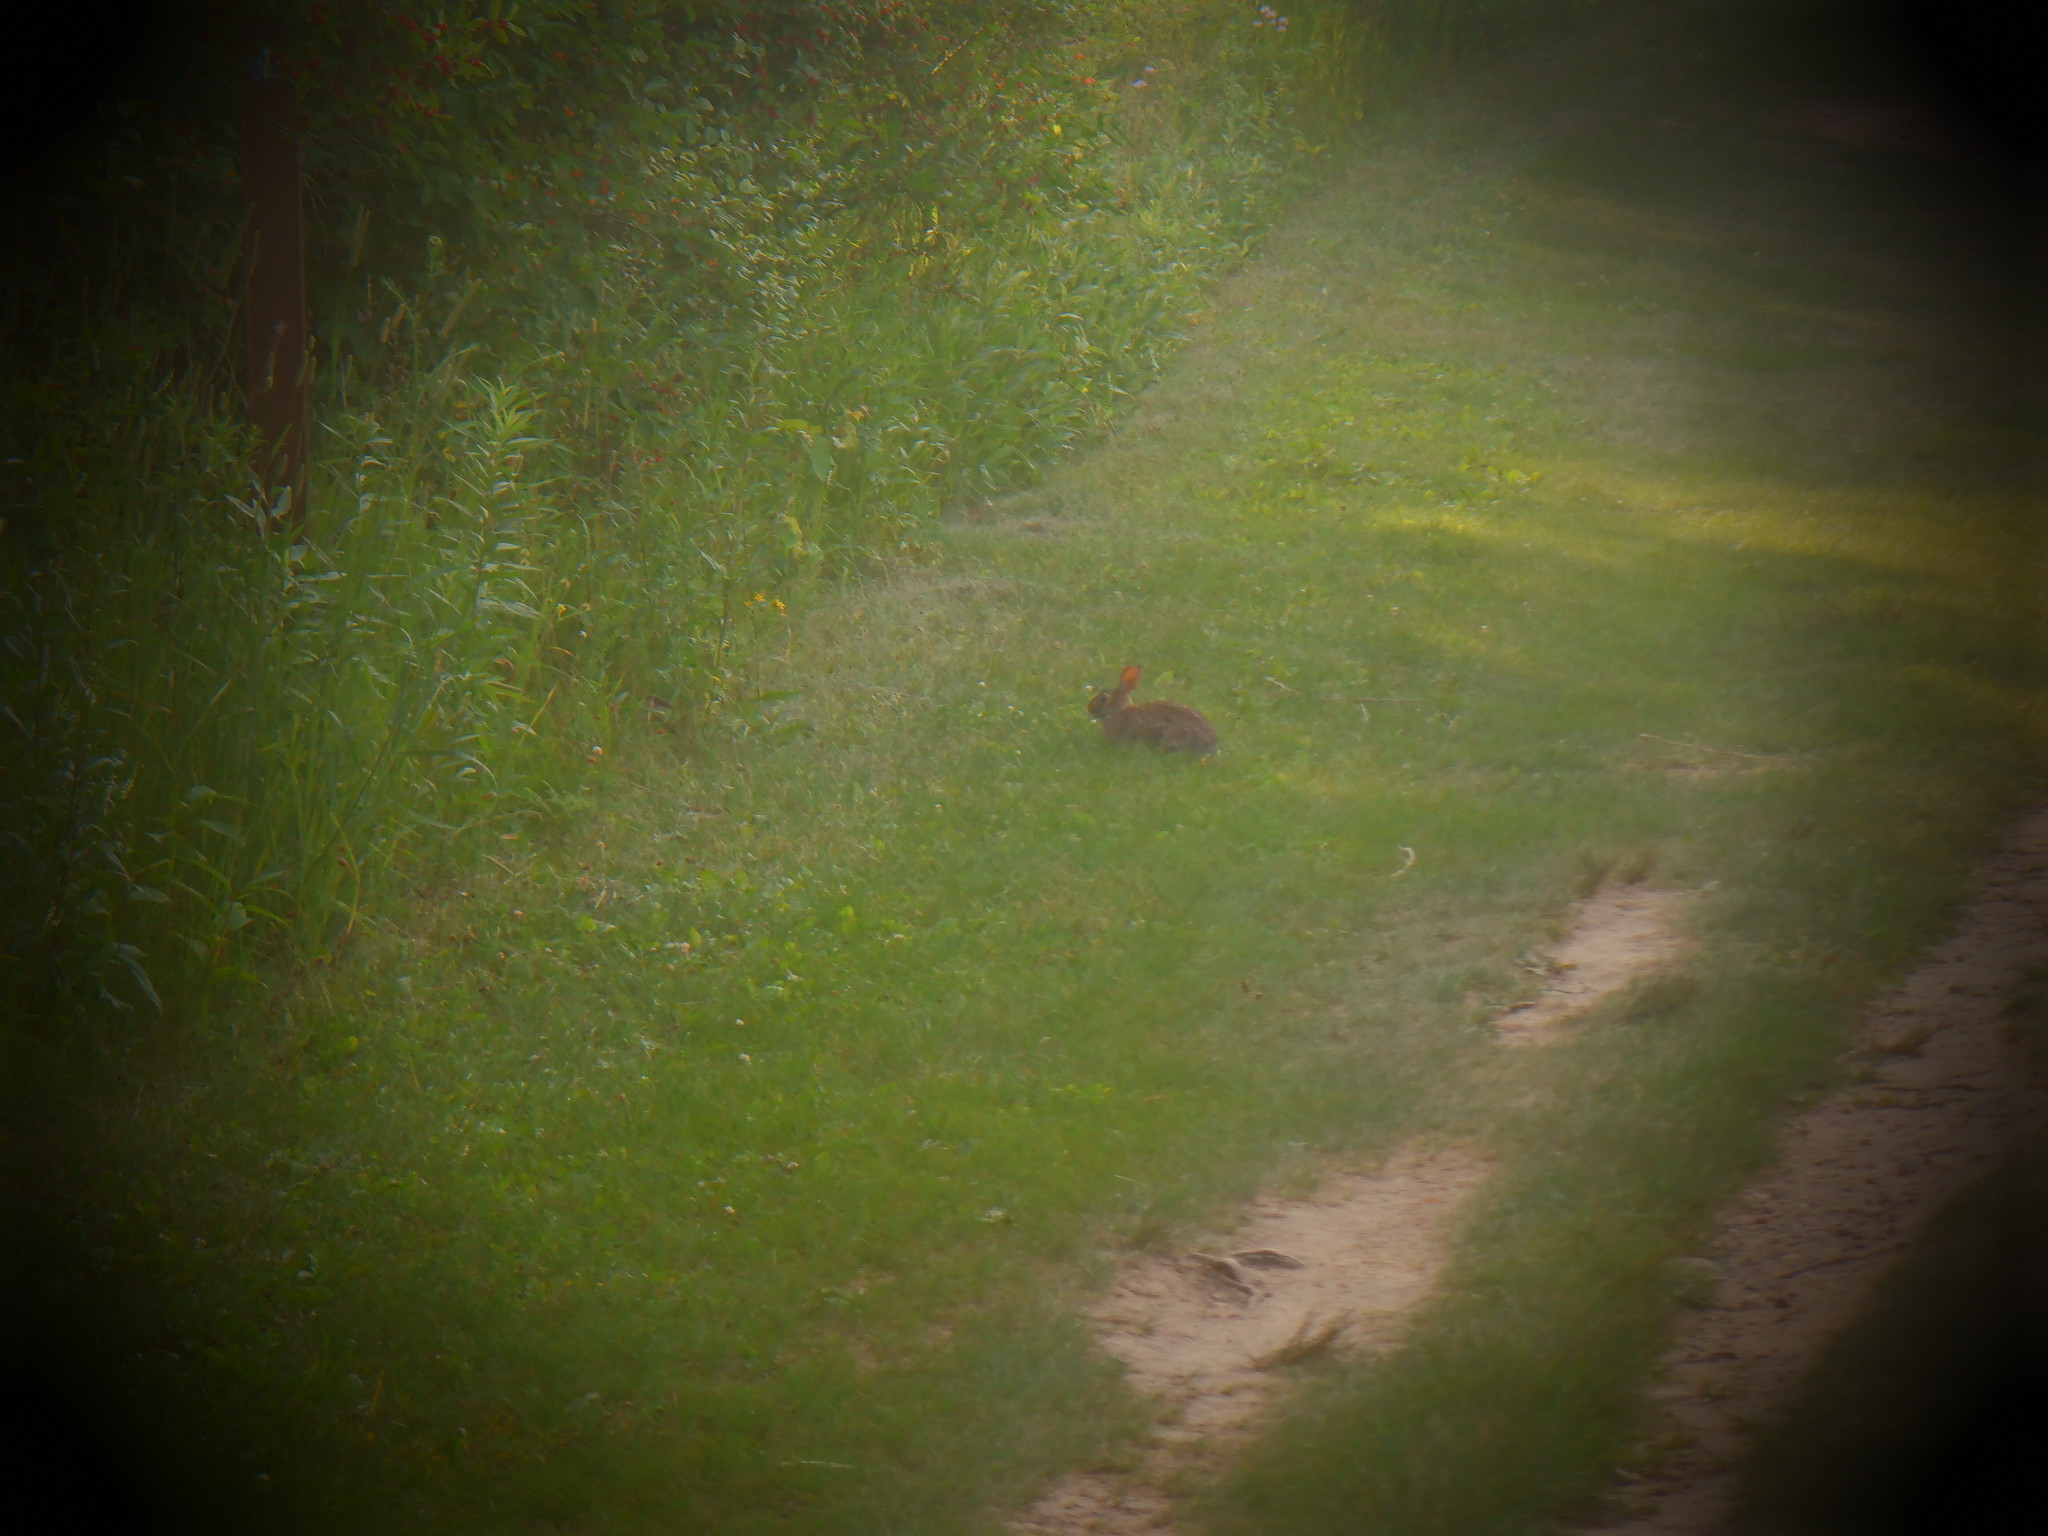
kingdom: Animalia
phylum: Chordata
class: Mammalia
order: Lagomorpha
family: Leporidae
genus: Sylvilagus
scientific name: Sylvilagus floridanus
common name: Eastern cottontail
